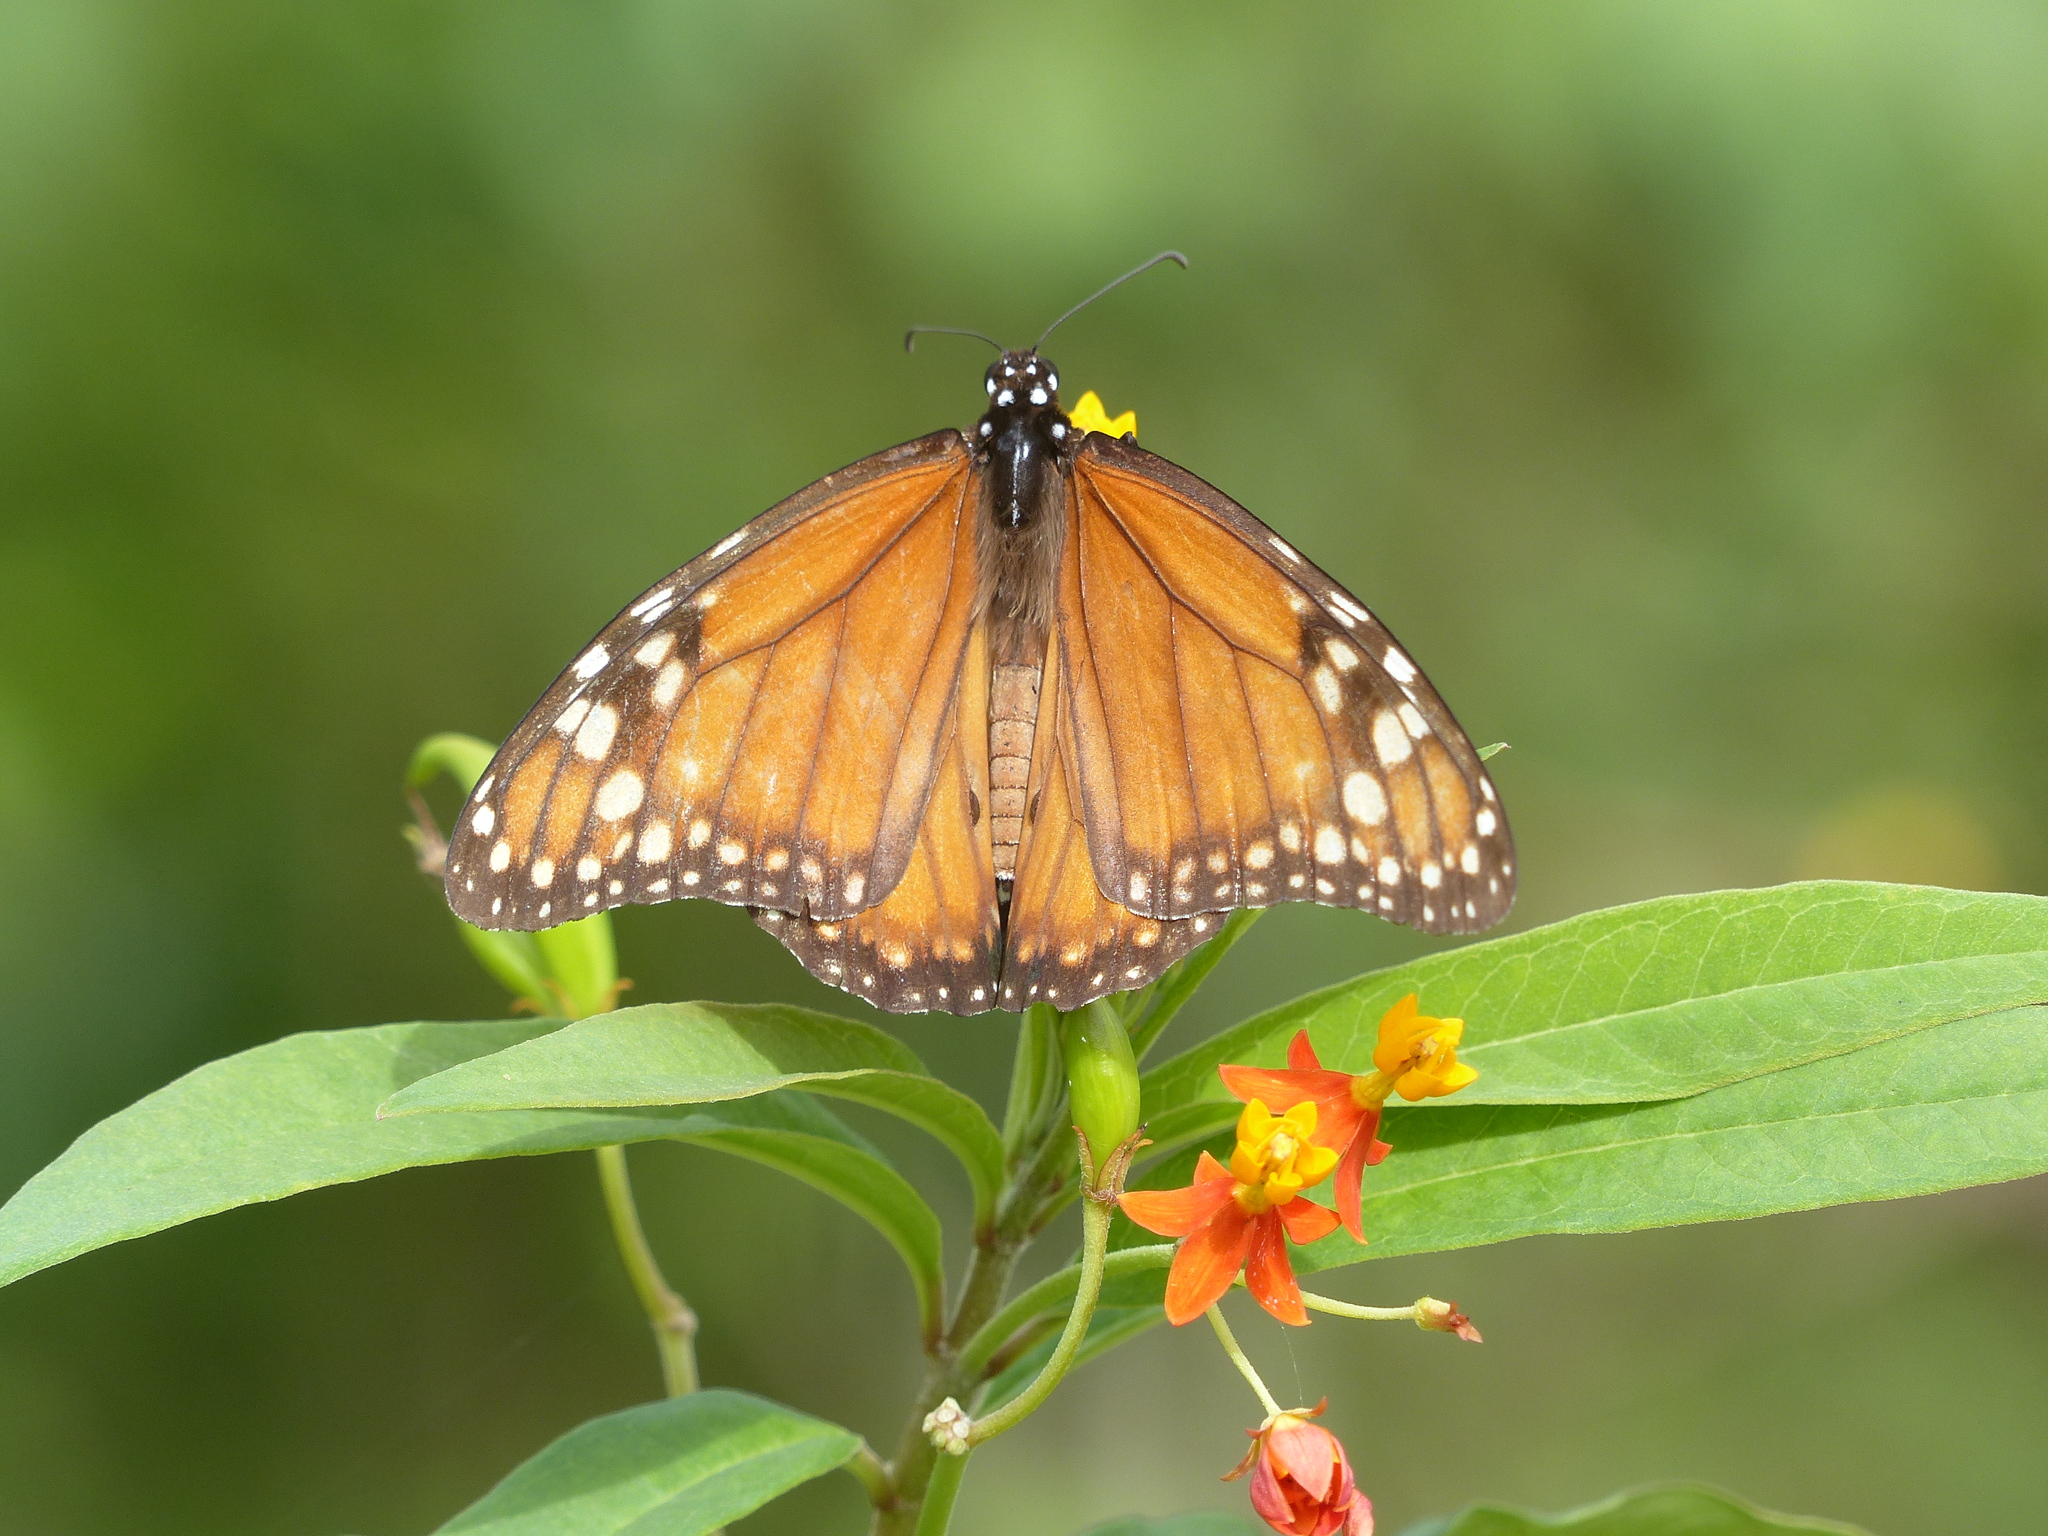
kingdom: Animalia
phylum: Arthropoda
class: Insecta
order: Lepidoptera
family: Nymphalidae
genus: Danaus
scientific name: Danaus erippus
